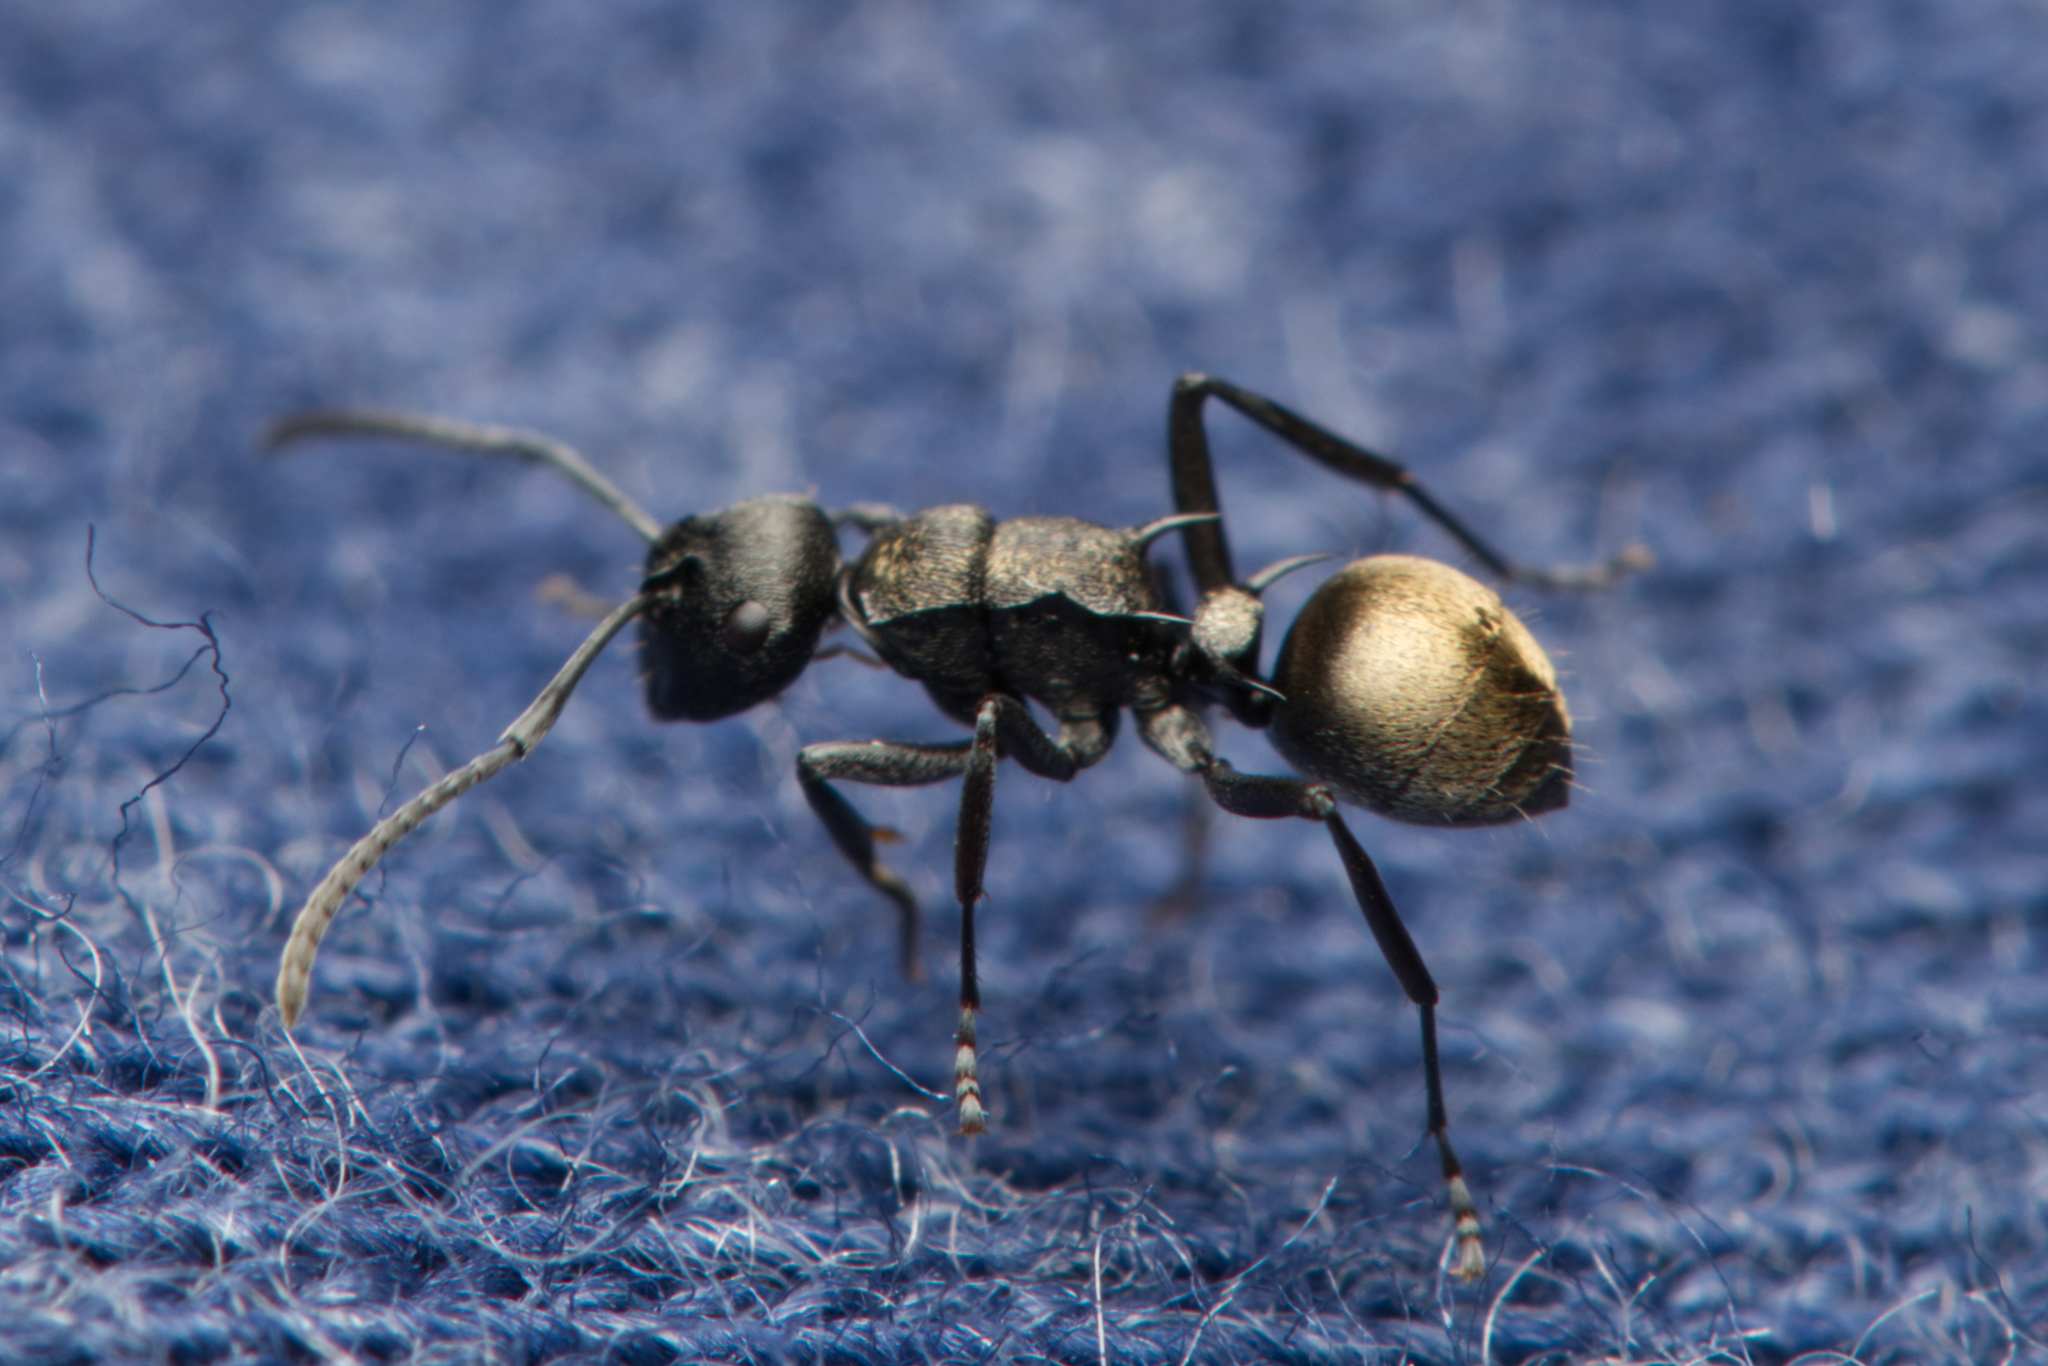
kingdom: Animalia
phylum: Arthropoda
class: Insecta
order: Hymenoptera
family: Formicidae
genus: Polyrhachis
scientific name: Polyrhachis mjobergi
